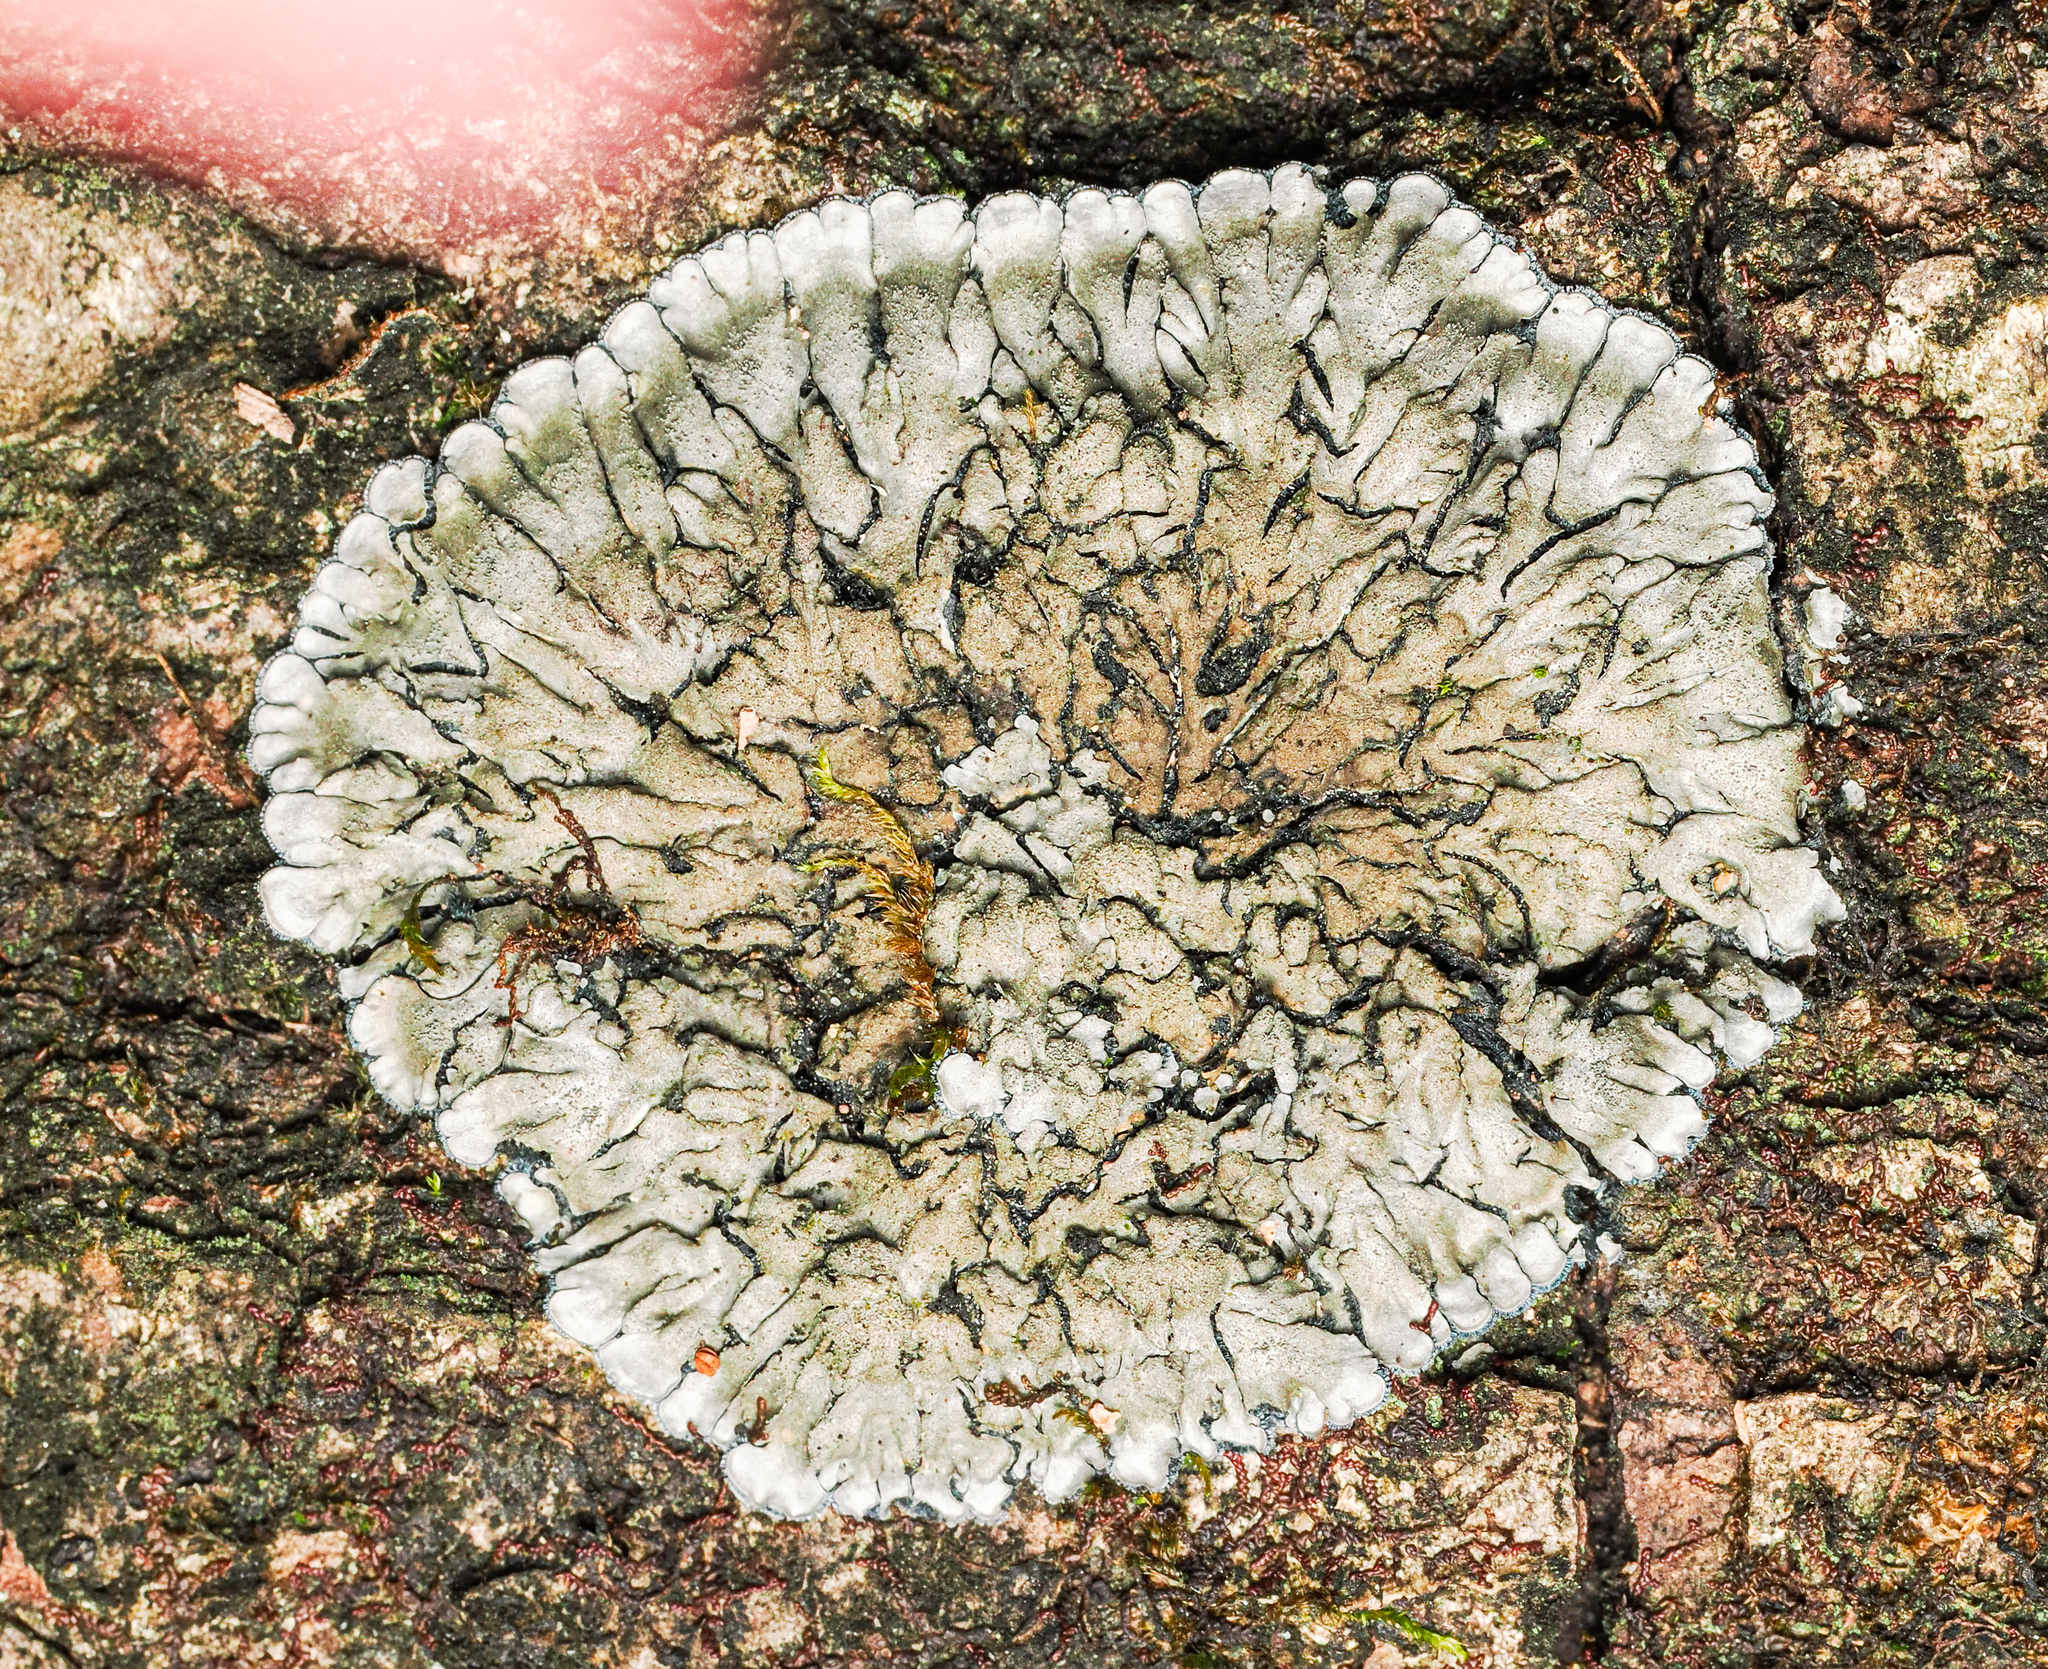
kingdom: Fungi
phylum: Ascomycota
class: Lecanoromycetes
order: Peltigerales
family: Coccocarpiaceae
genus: Coccocarpia
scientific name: Coccocarpia palmicola
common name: Salted shell lichen
